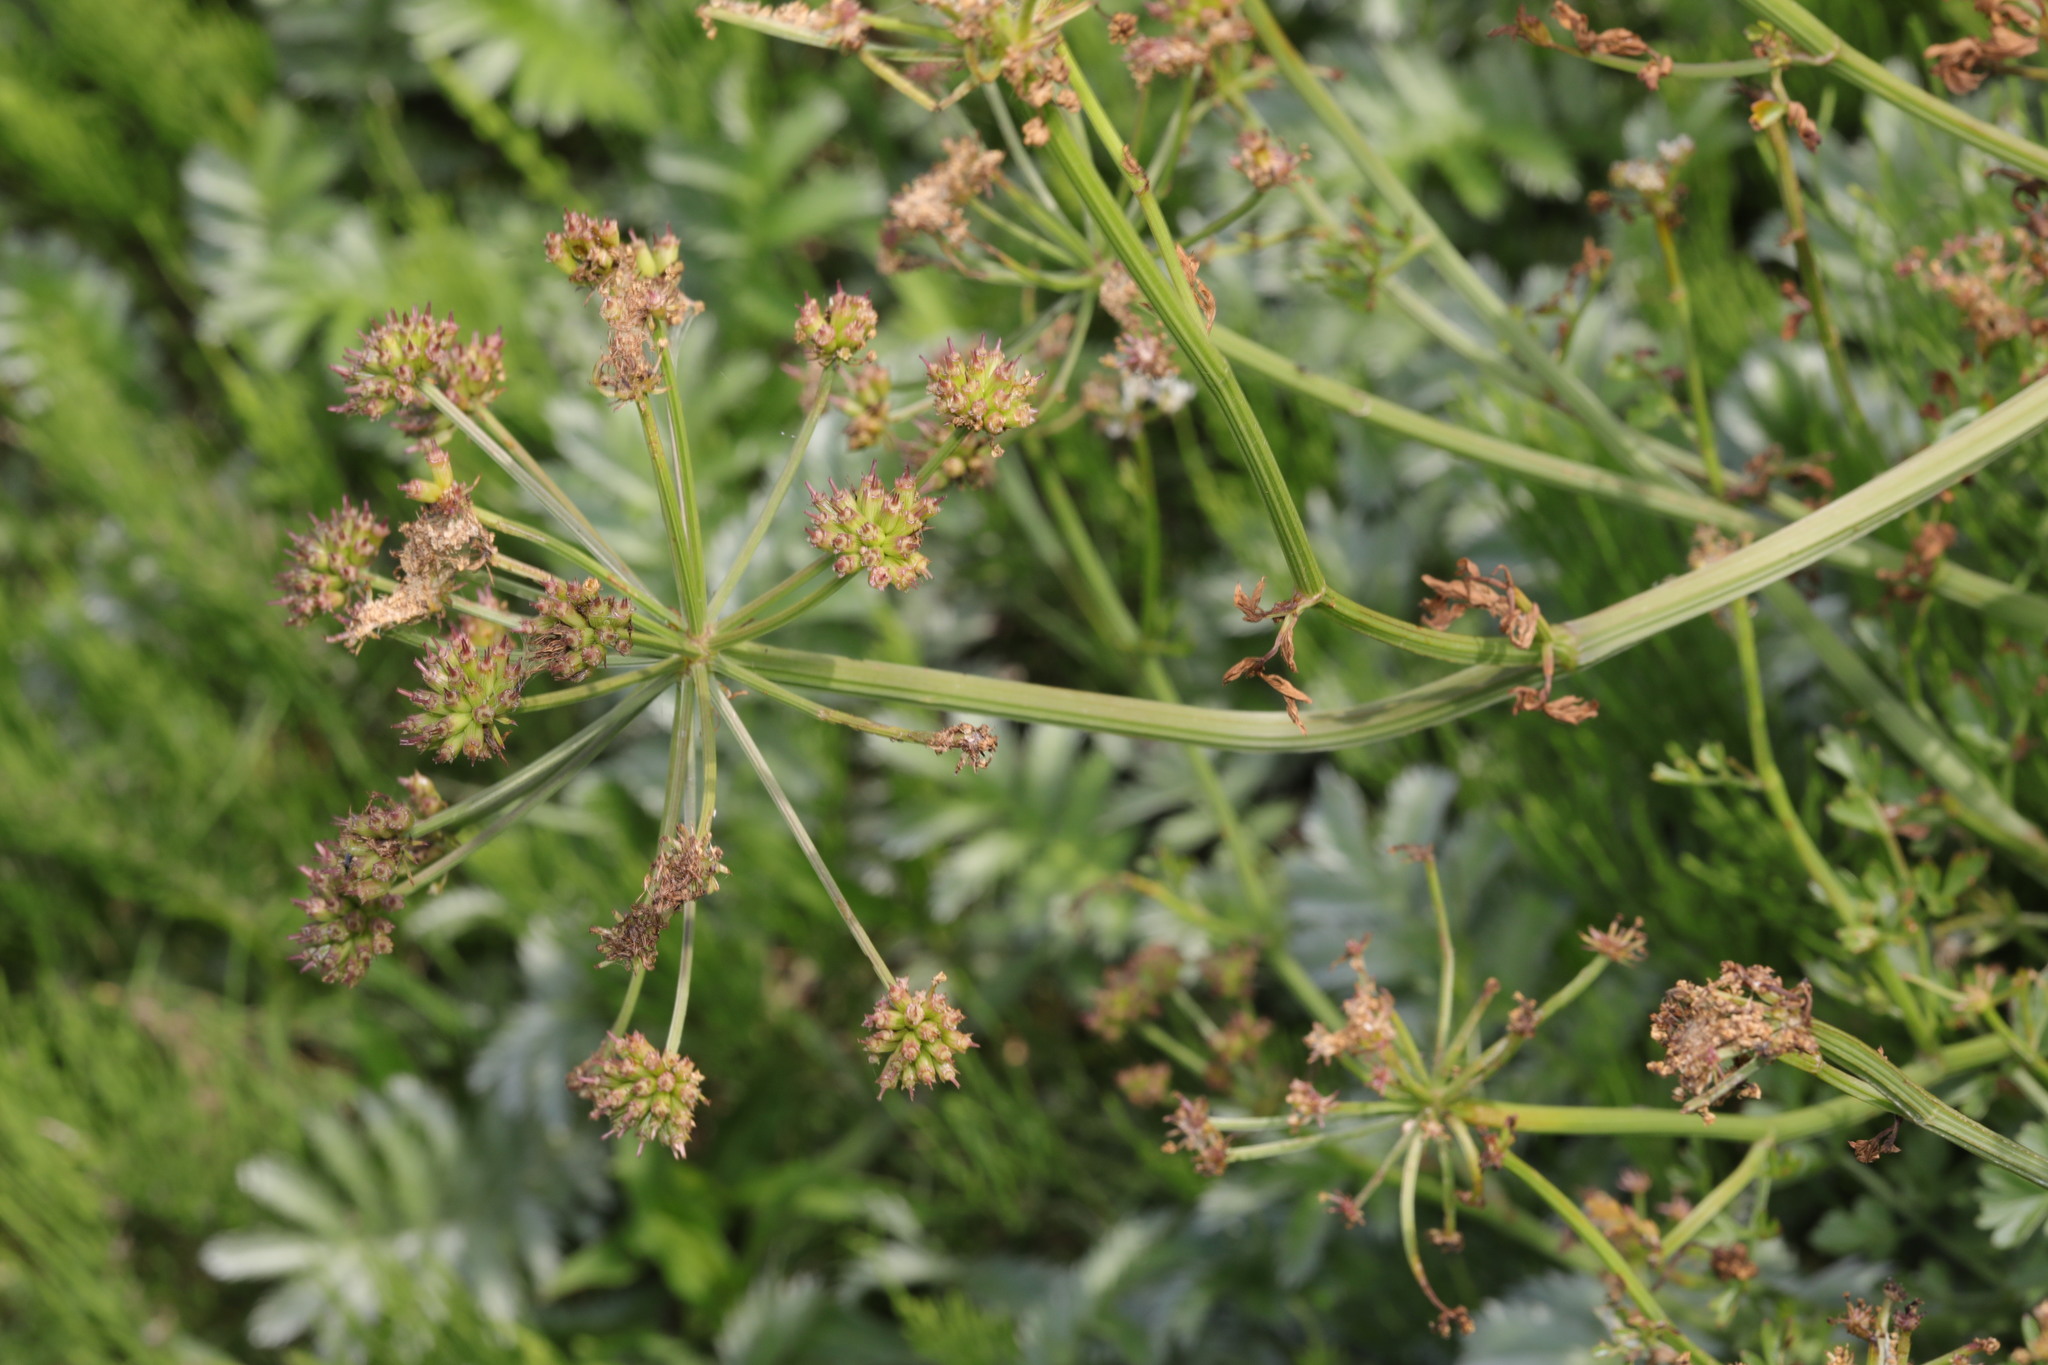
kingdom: Plantae
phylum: Tracheophyta
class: Magnoliopsida
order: Apiales
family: Apiaceae
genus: Oenanthe
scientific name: Oenanthe crocata
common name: Hemlock water-dropwort
